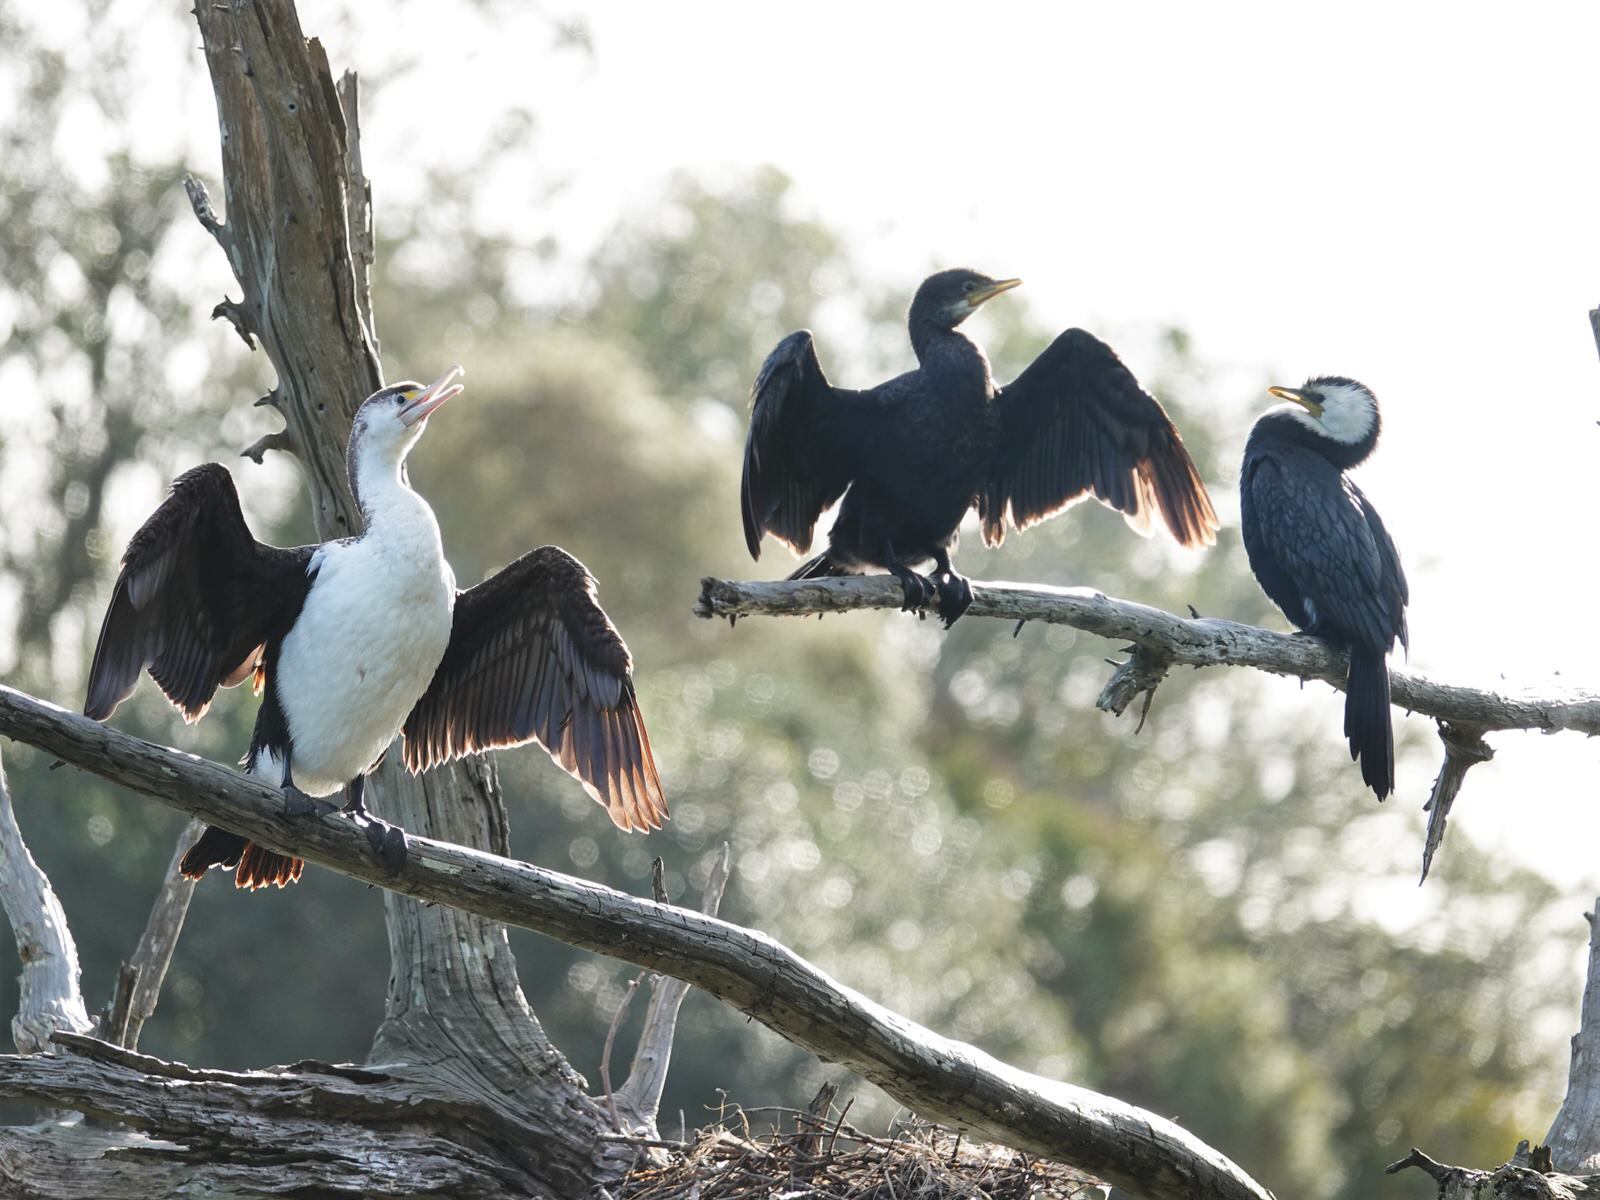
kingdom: Animalia
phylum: Chordata
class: Aves
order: Suliformes
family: Phalacrocoracidae
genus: Microcarbo
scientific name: Microcarbo melanoleucos
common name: Little pied cormorant
